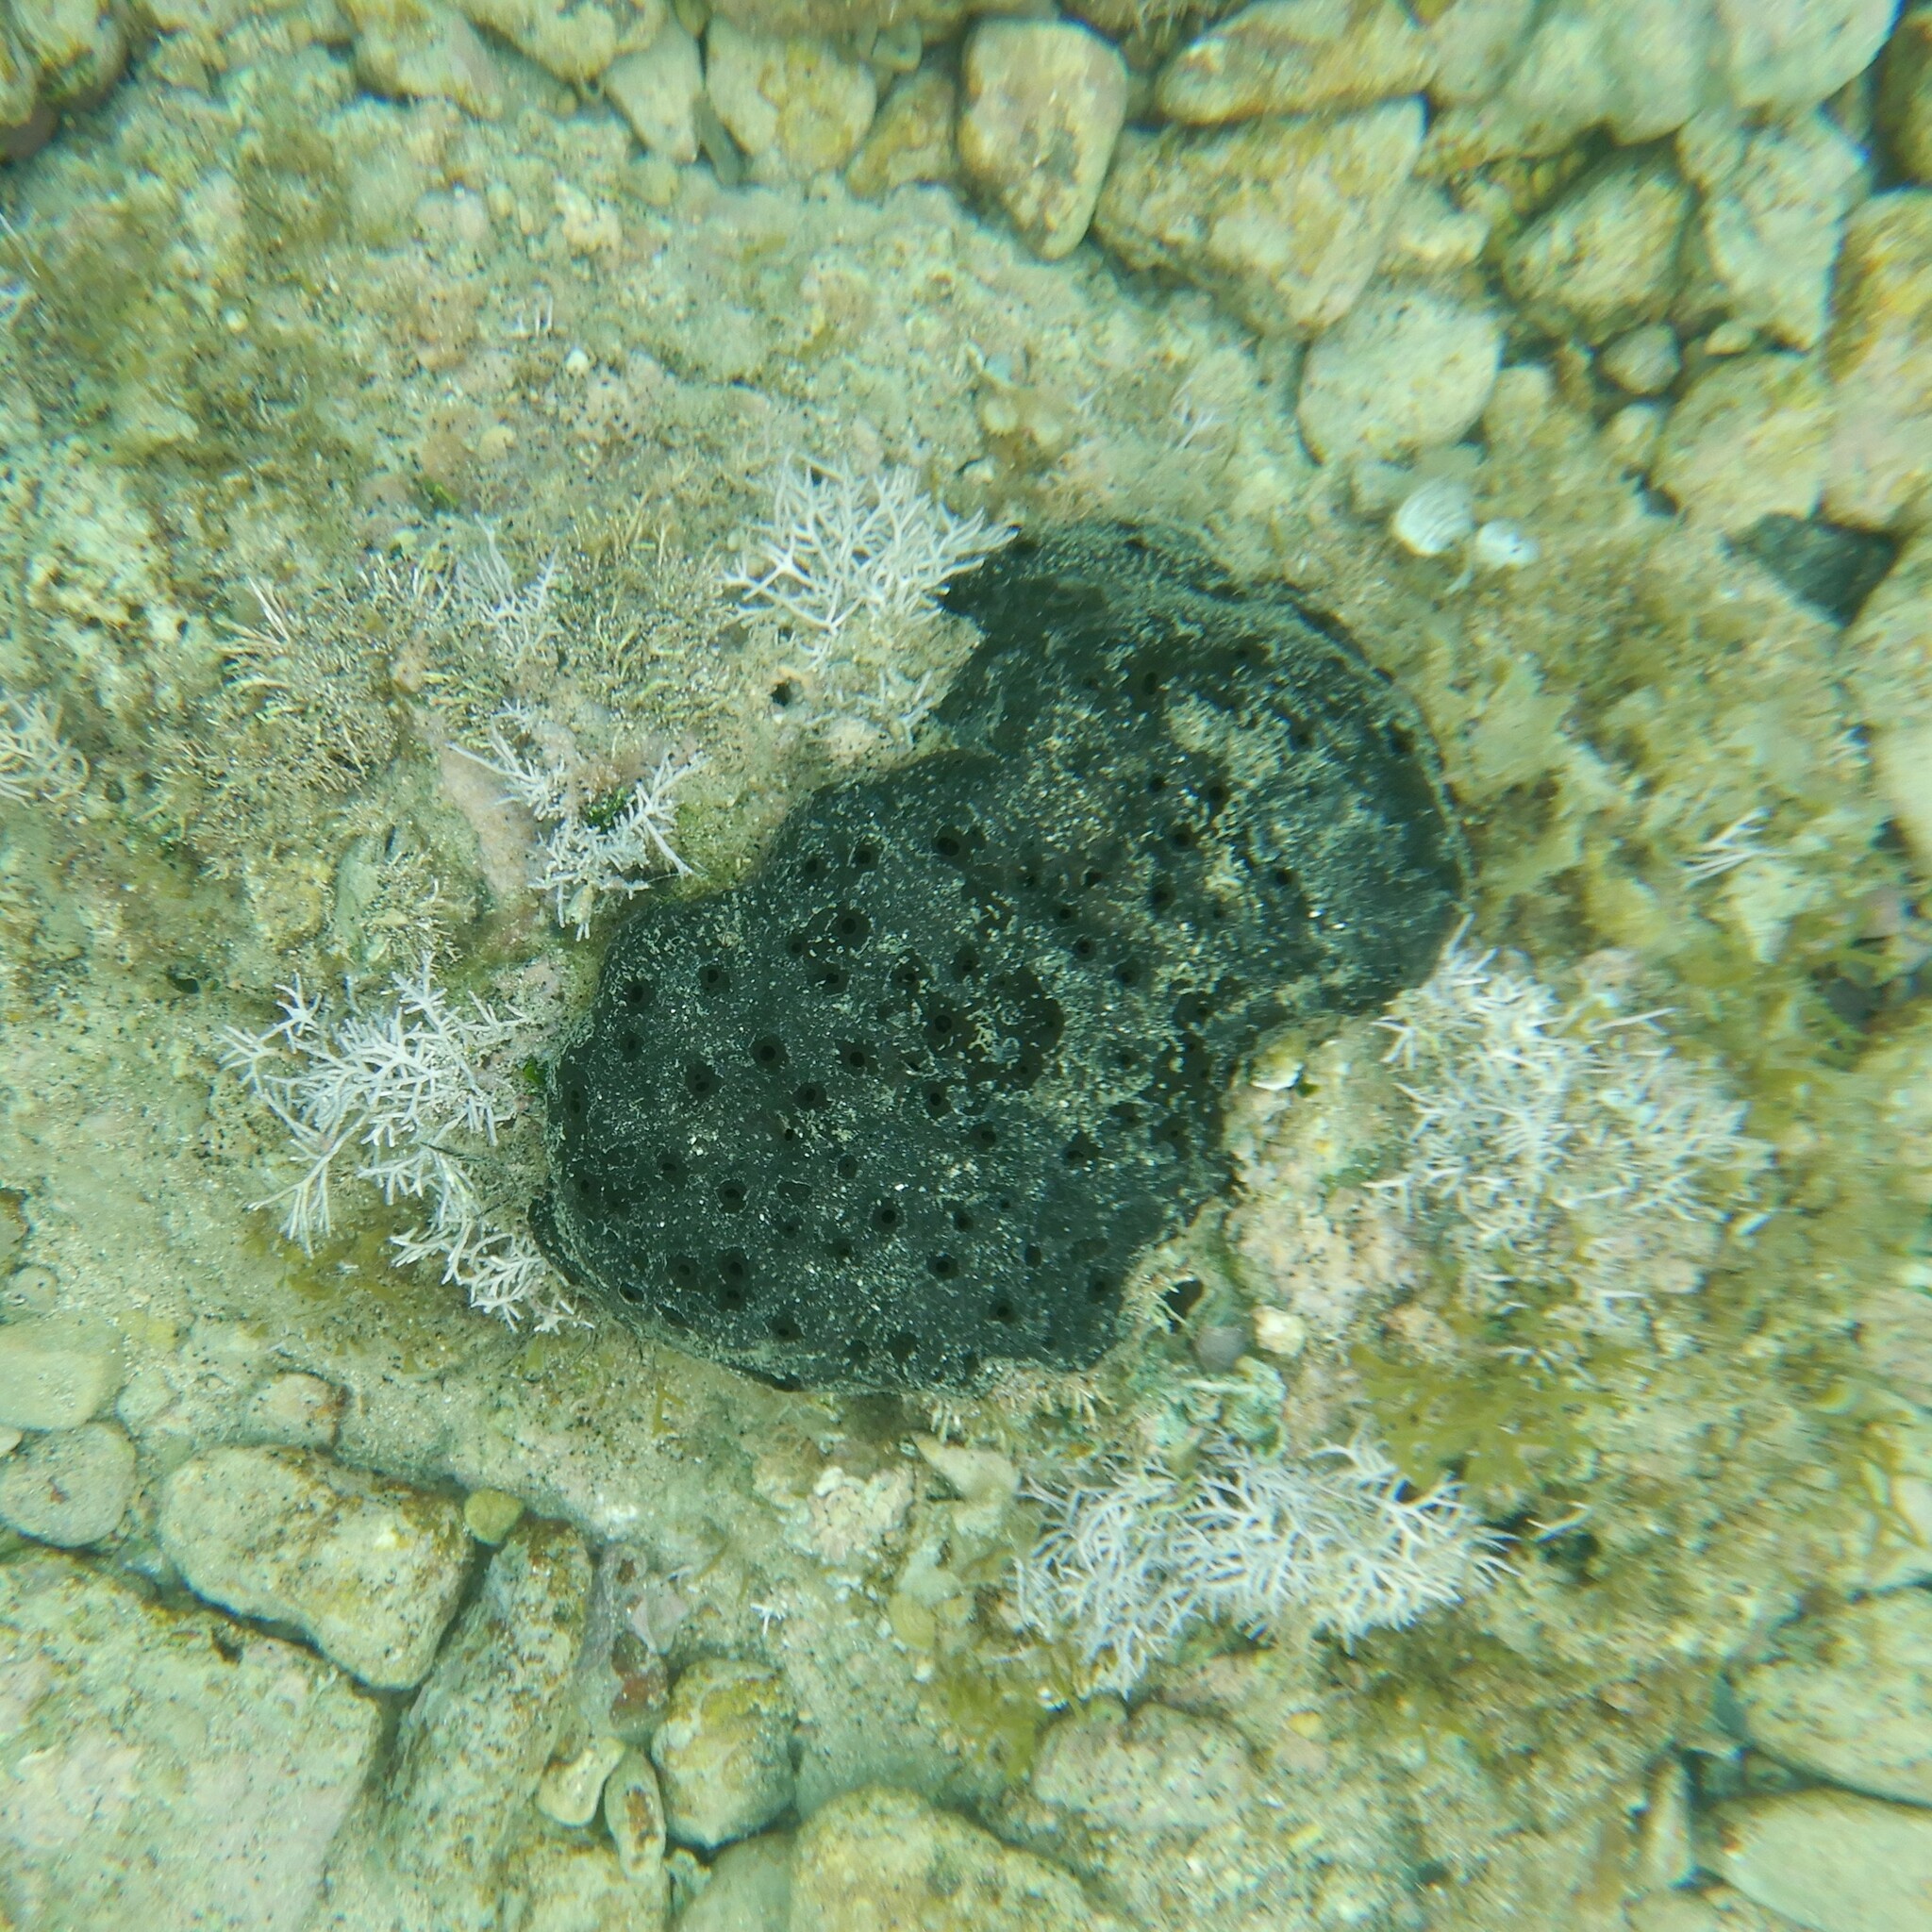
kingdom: Animalia
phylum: Porifera
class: Demospongiae
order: Dictyoceratida
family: Irciniidae
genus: Sarcotragus
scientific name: Sarcotragus spinosulus
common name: Black leather sponge
